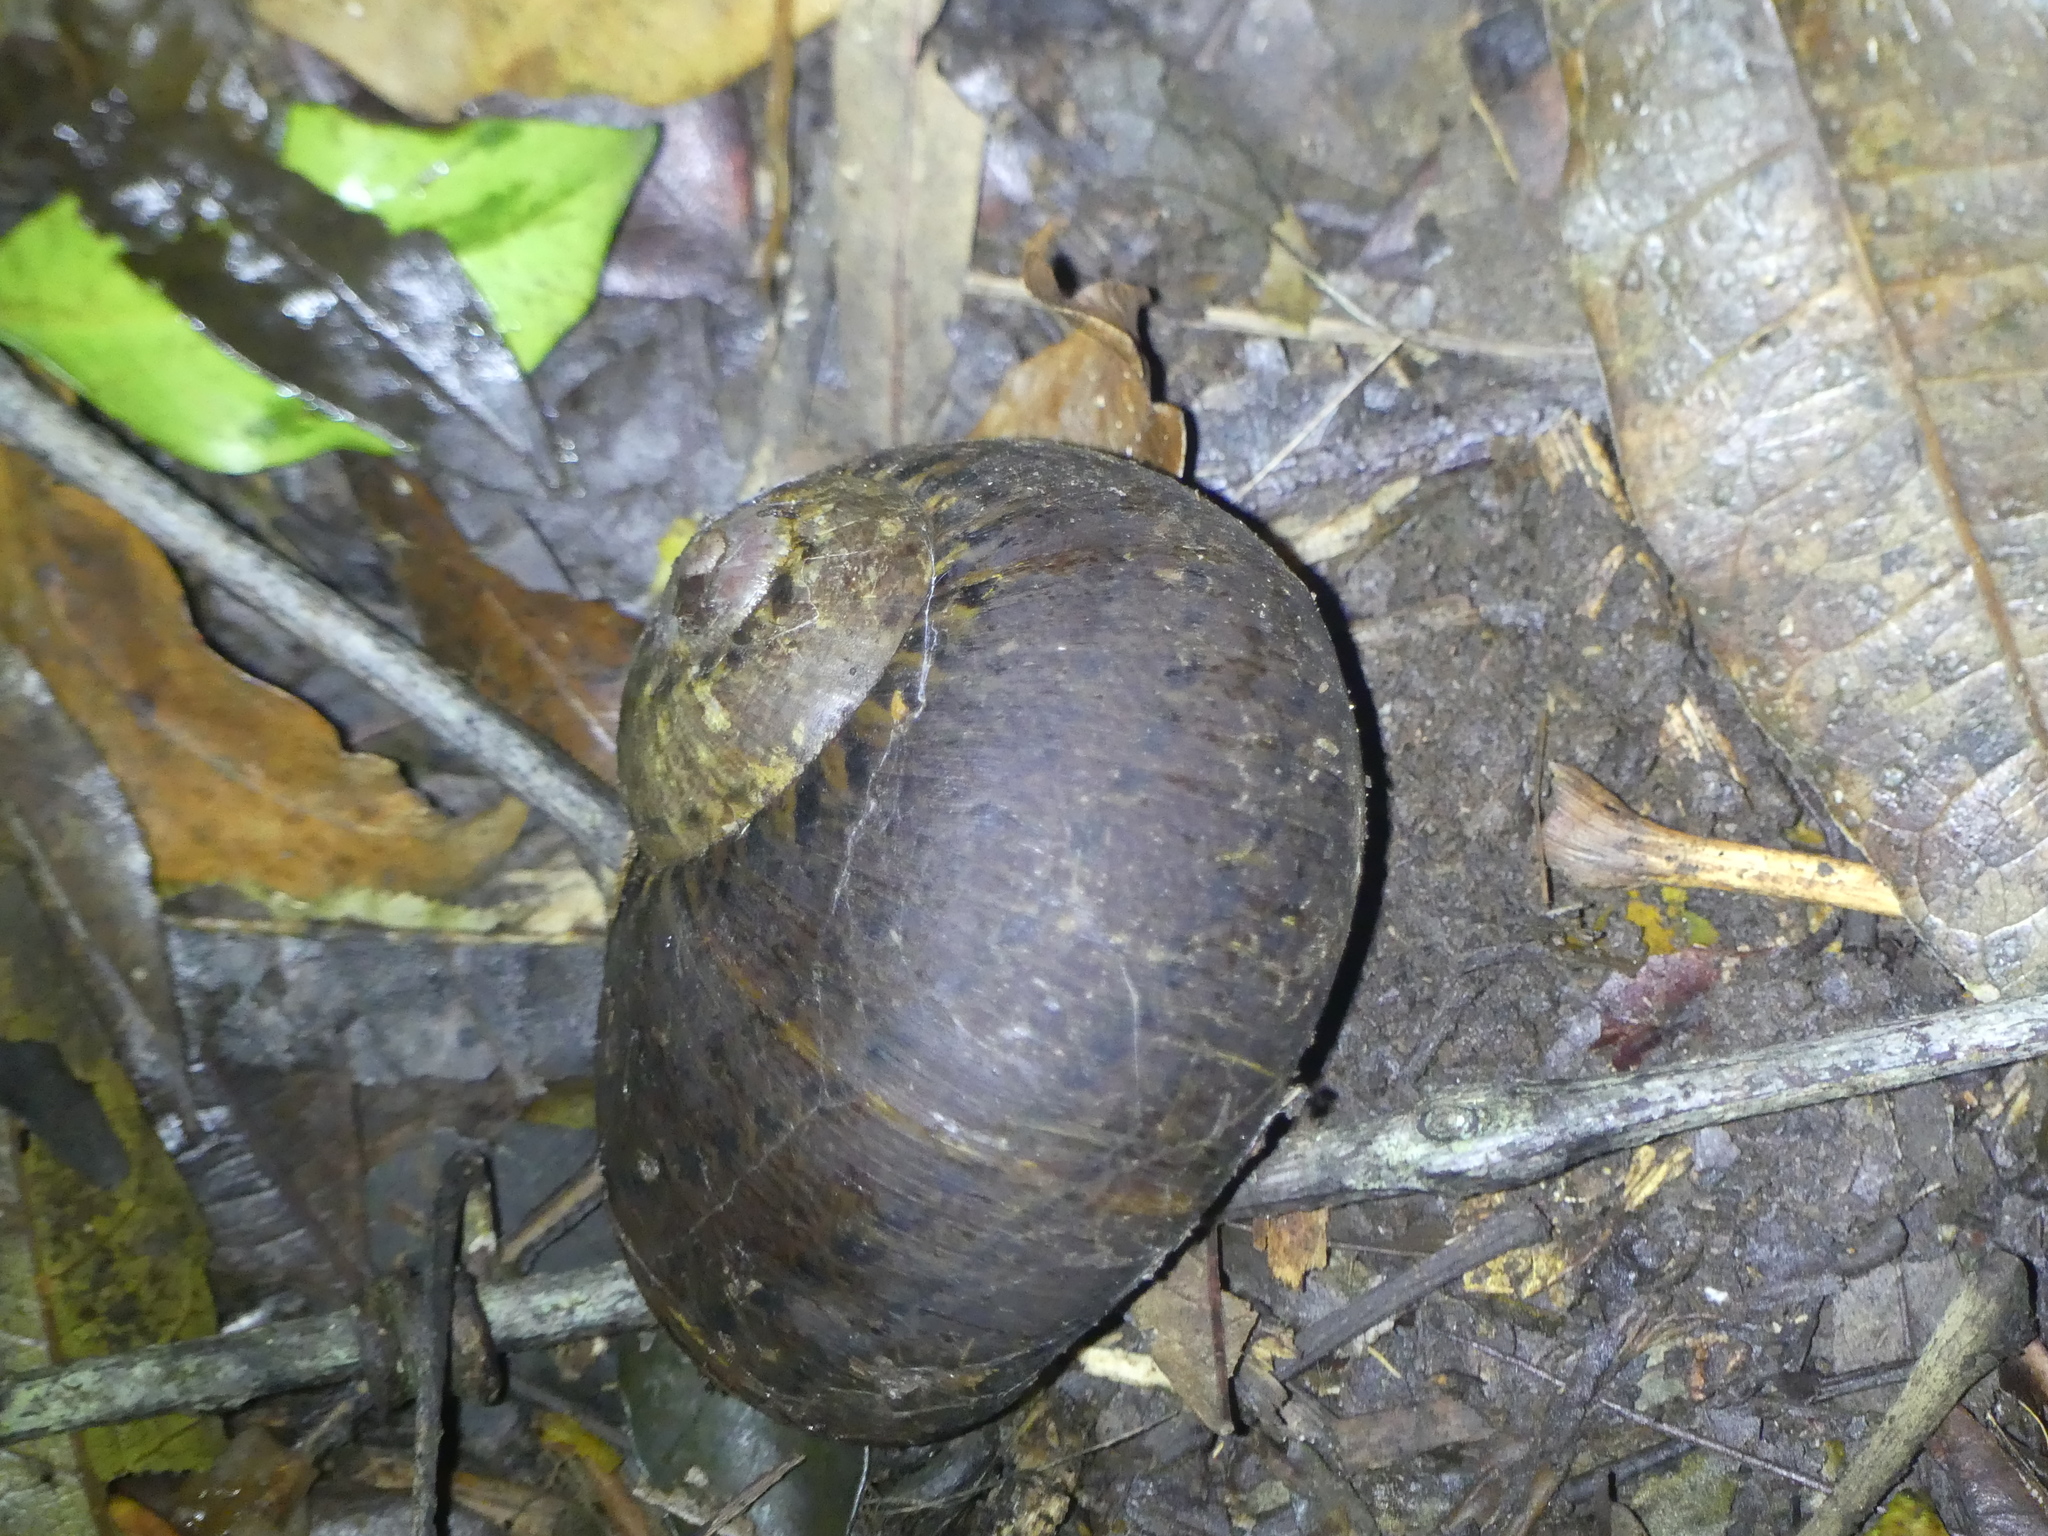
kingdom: Animalia
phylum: Mollusca
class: Gastropoda
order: Stylommatophora
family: Caryodidae
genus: Hedleyella
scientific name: Hedleyella falconeri
